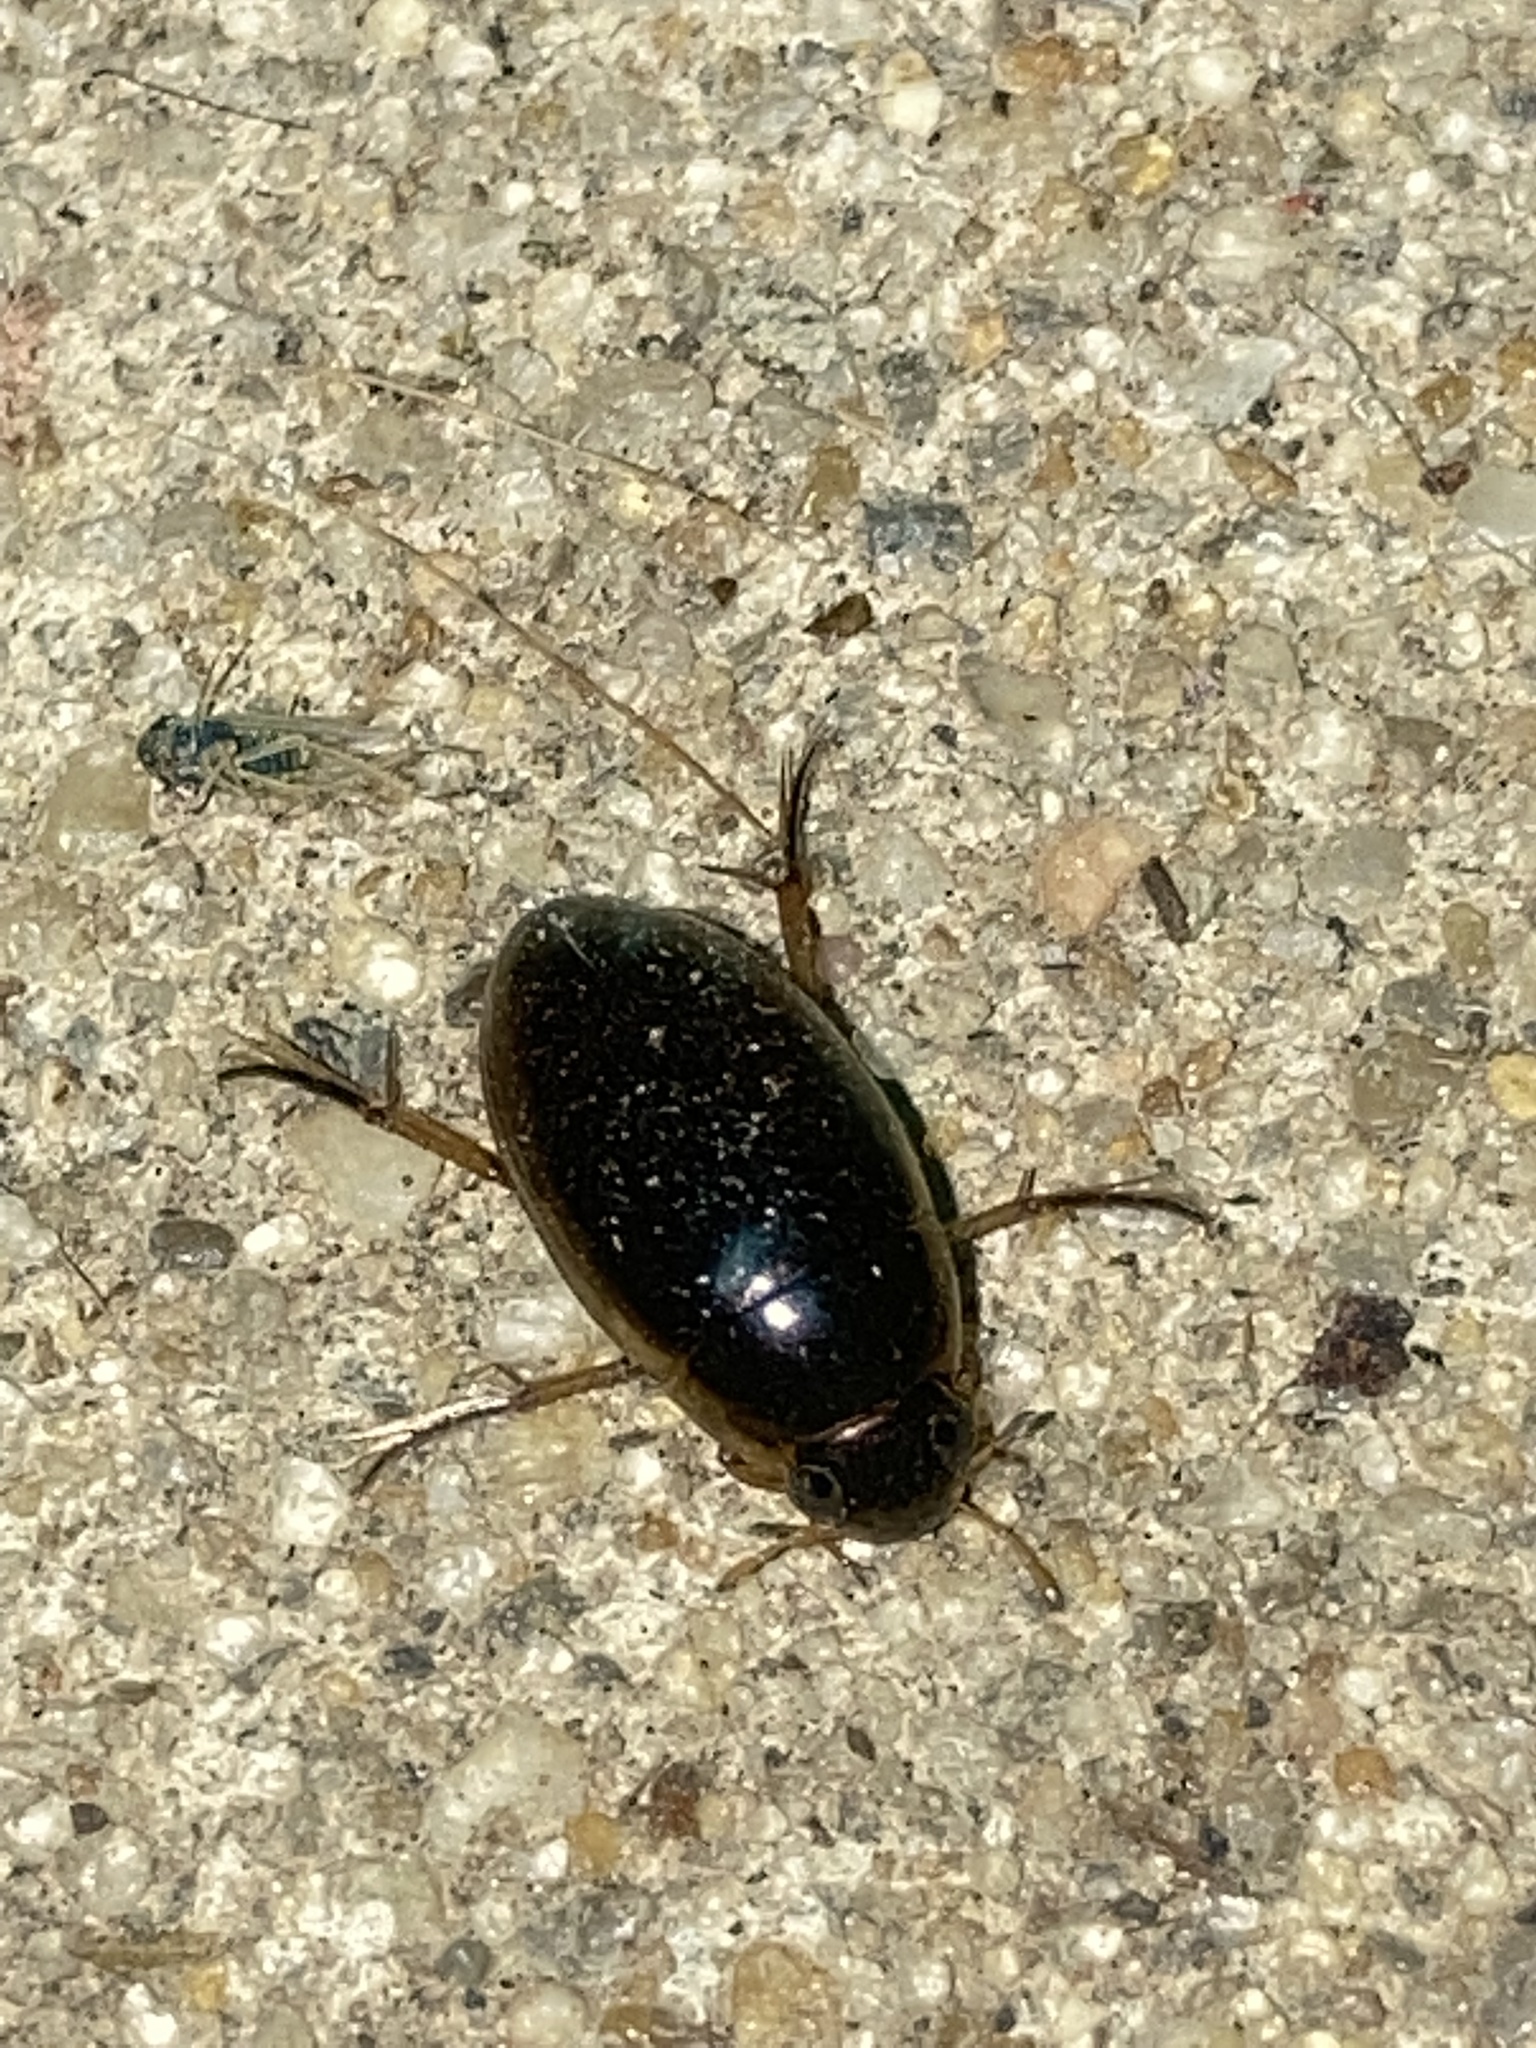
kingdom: Animalia
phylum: Arthropoda
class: Insecta
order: Coleoptera
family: Hydrophilidae
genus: Tropisternus
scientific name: Tropisternus lateralis
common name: Lateral-banded water scavenger beetle
